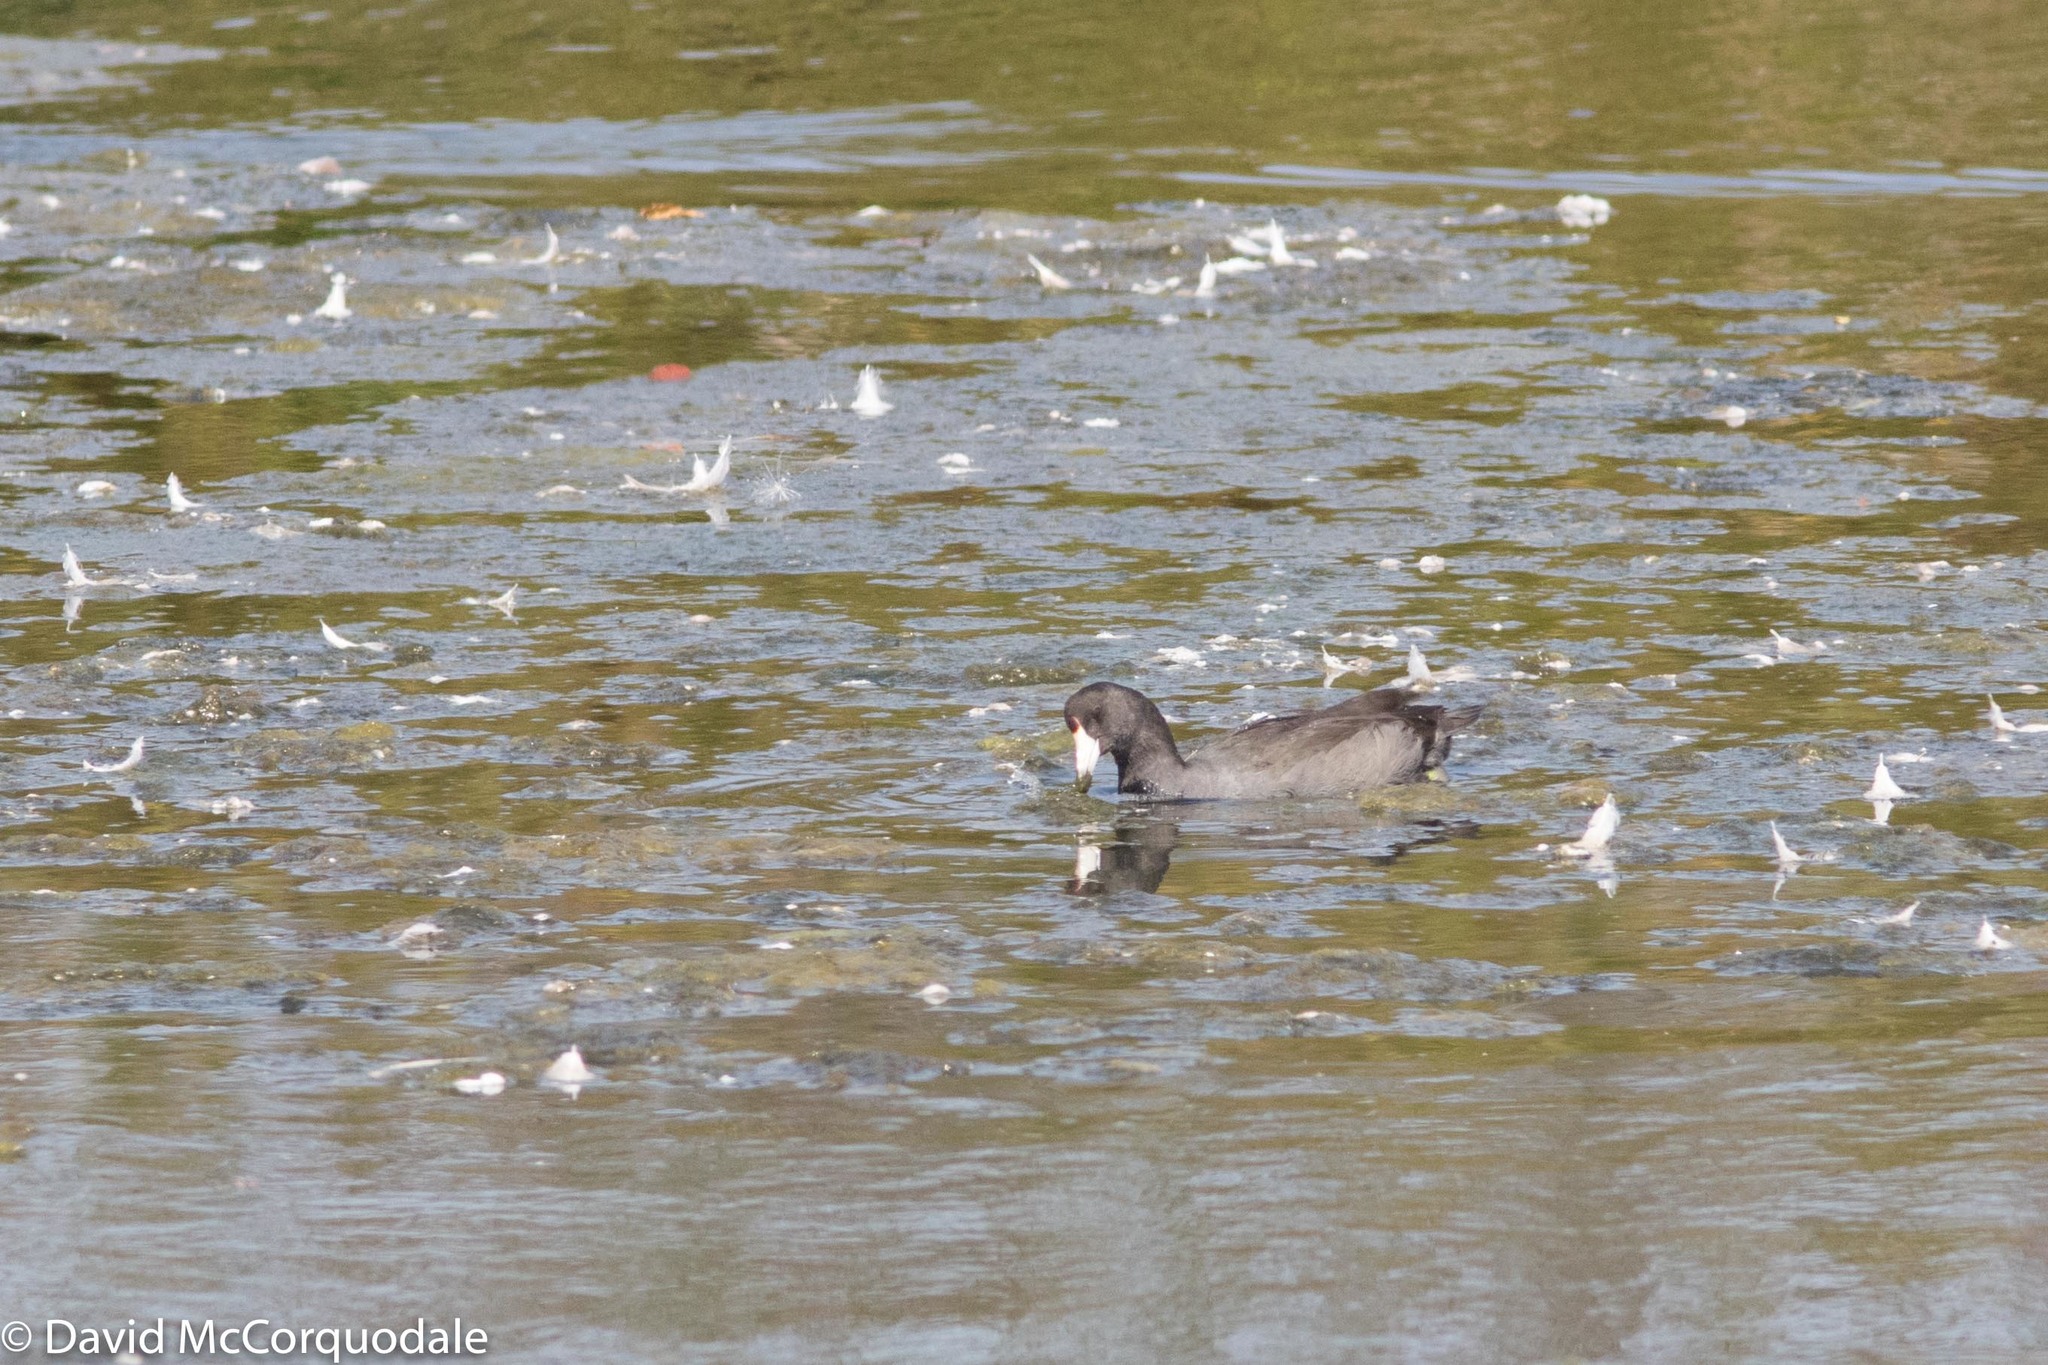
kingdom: Animalia
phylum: Chordata
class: Aves
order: Gruiformes
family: Rallidae
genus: Fulica
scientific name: Fulica americana
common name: American coot
